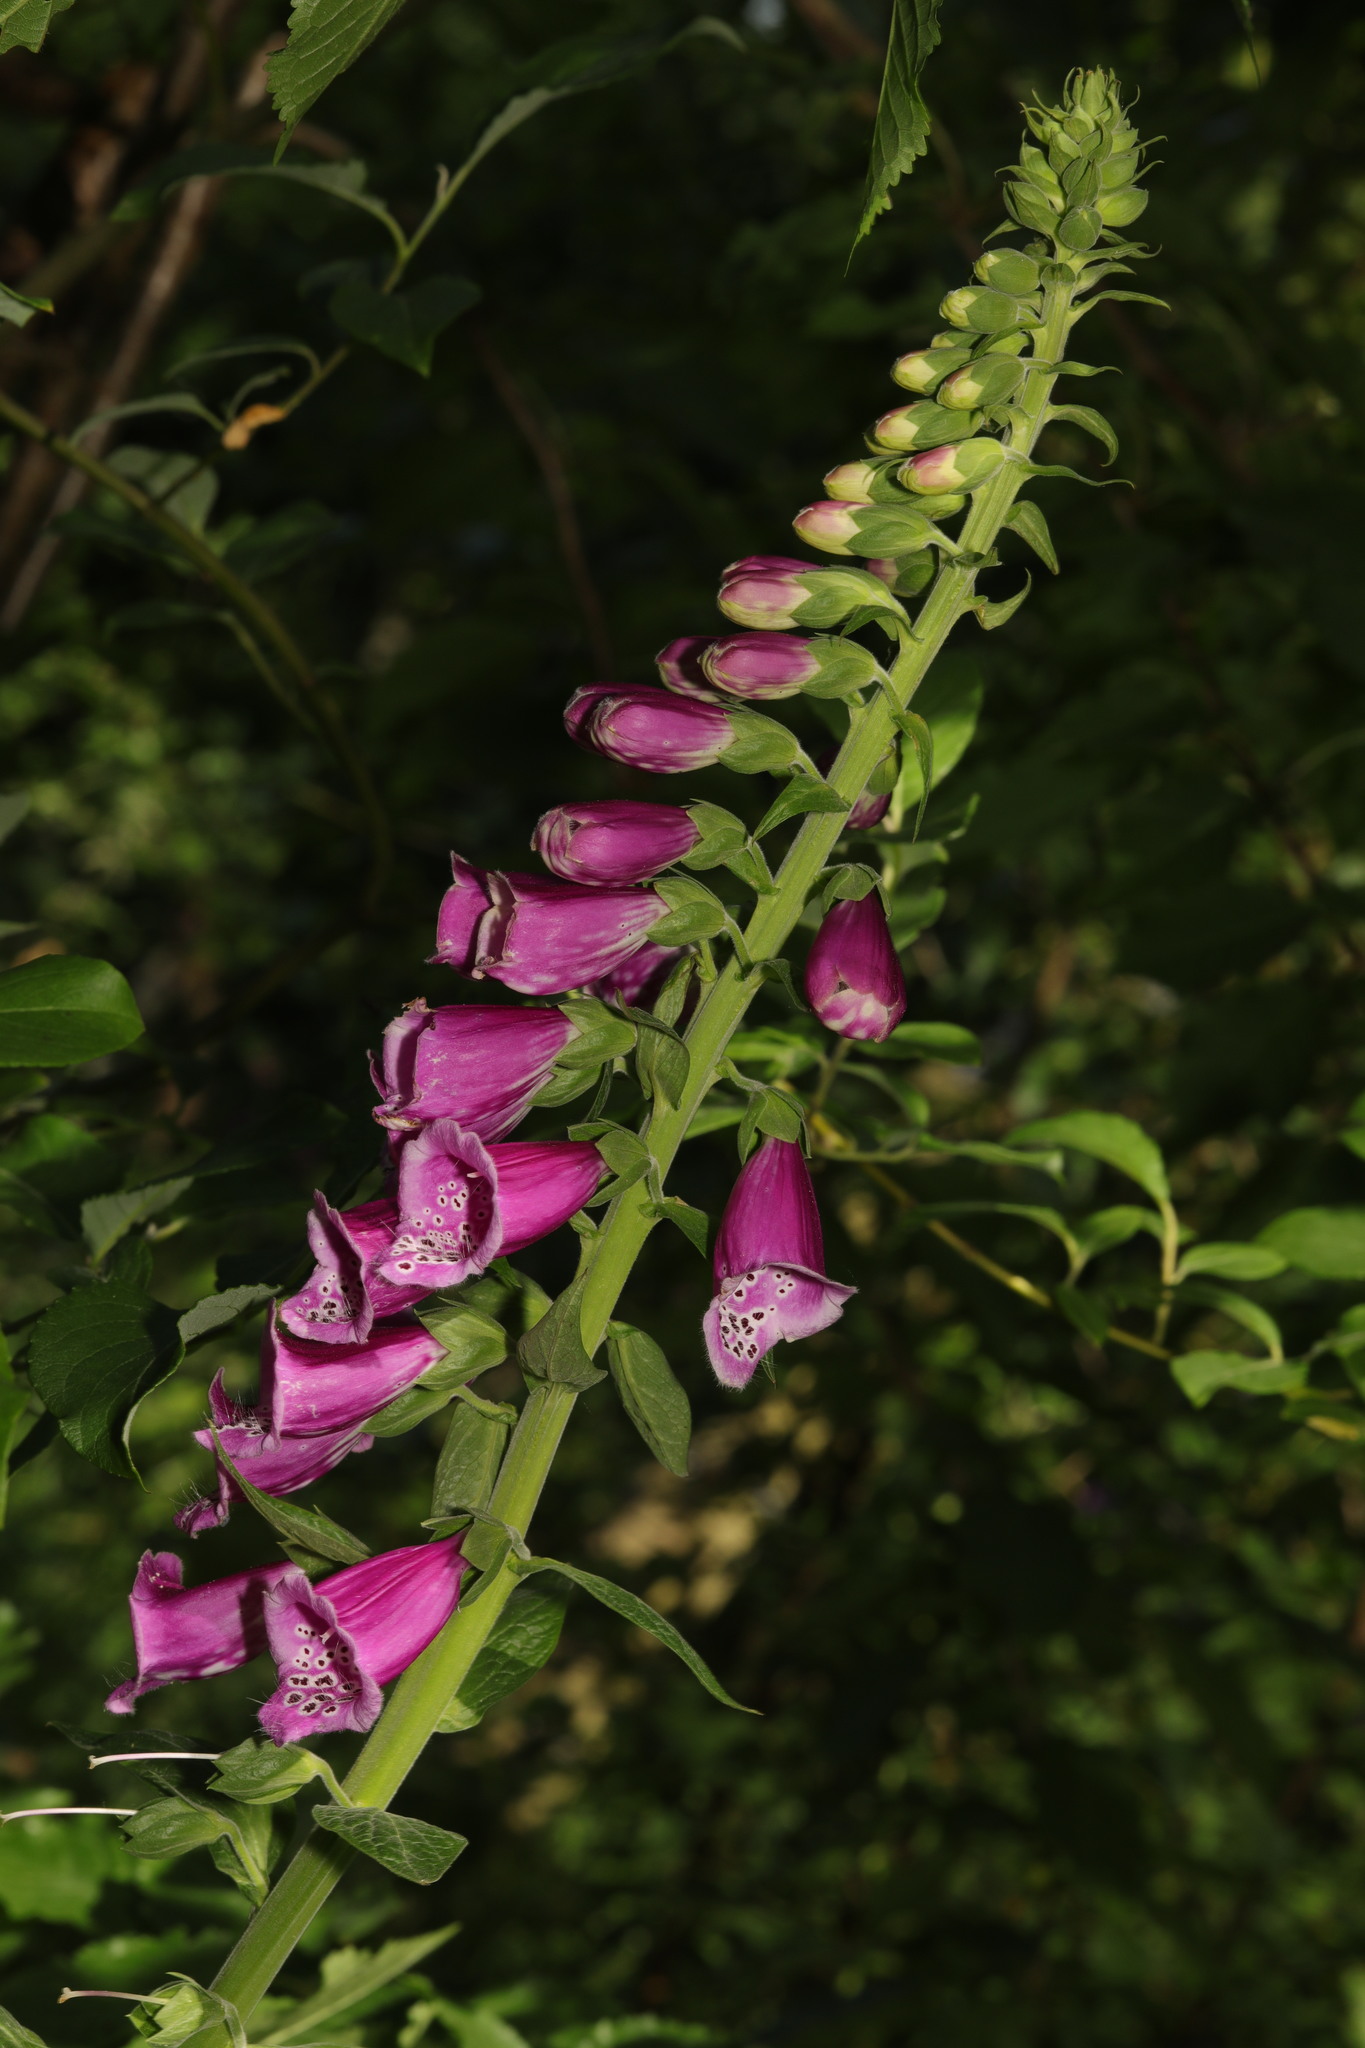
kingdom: Plantae
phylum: Tracheophyta
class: Magnoliopsida
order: Lamiales
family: Plantaginaceae
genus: Digitalis
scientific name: Digitalis purpurea
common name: Foxglove
